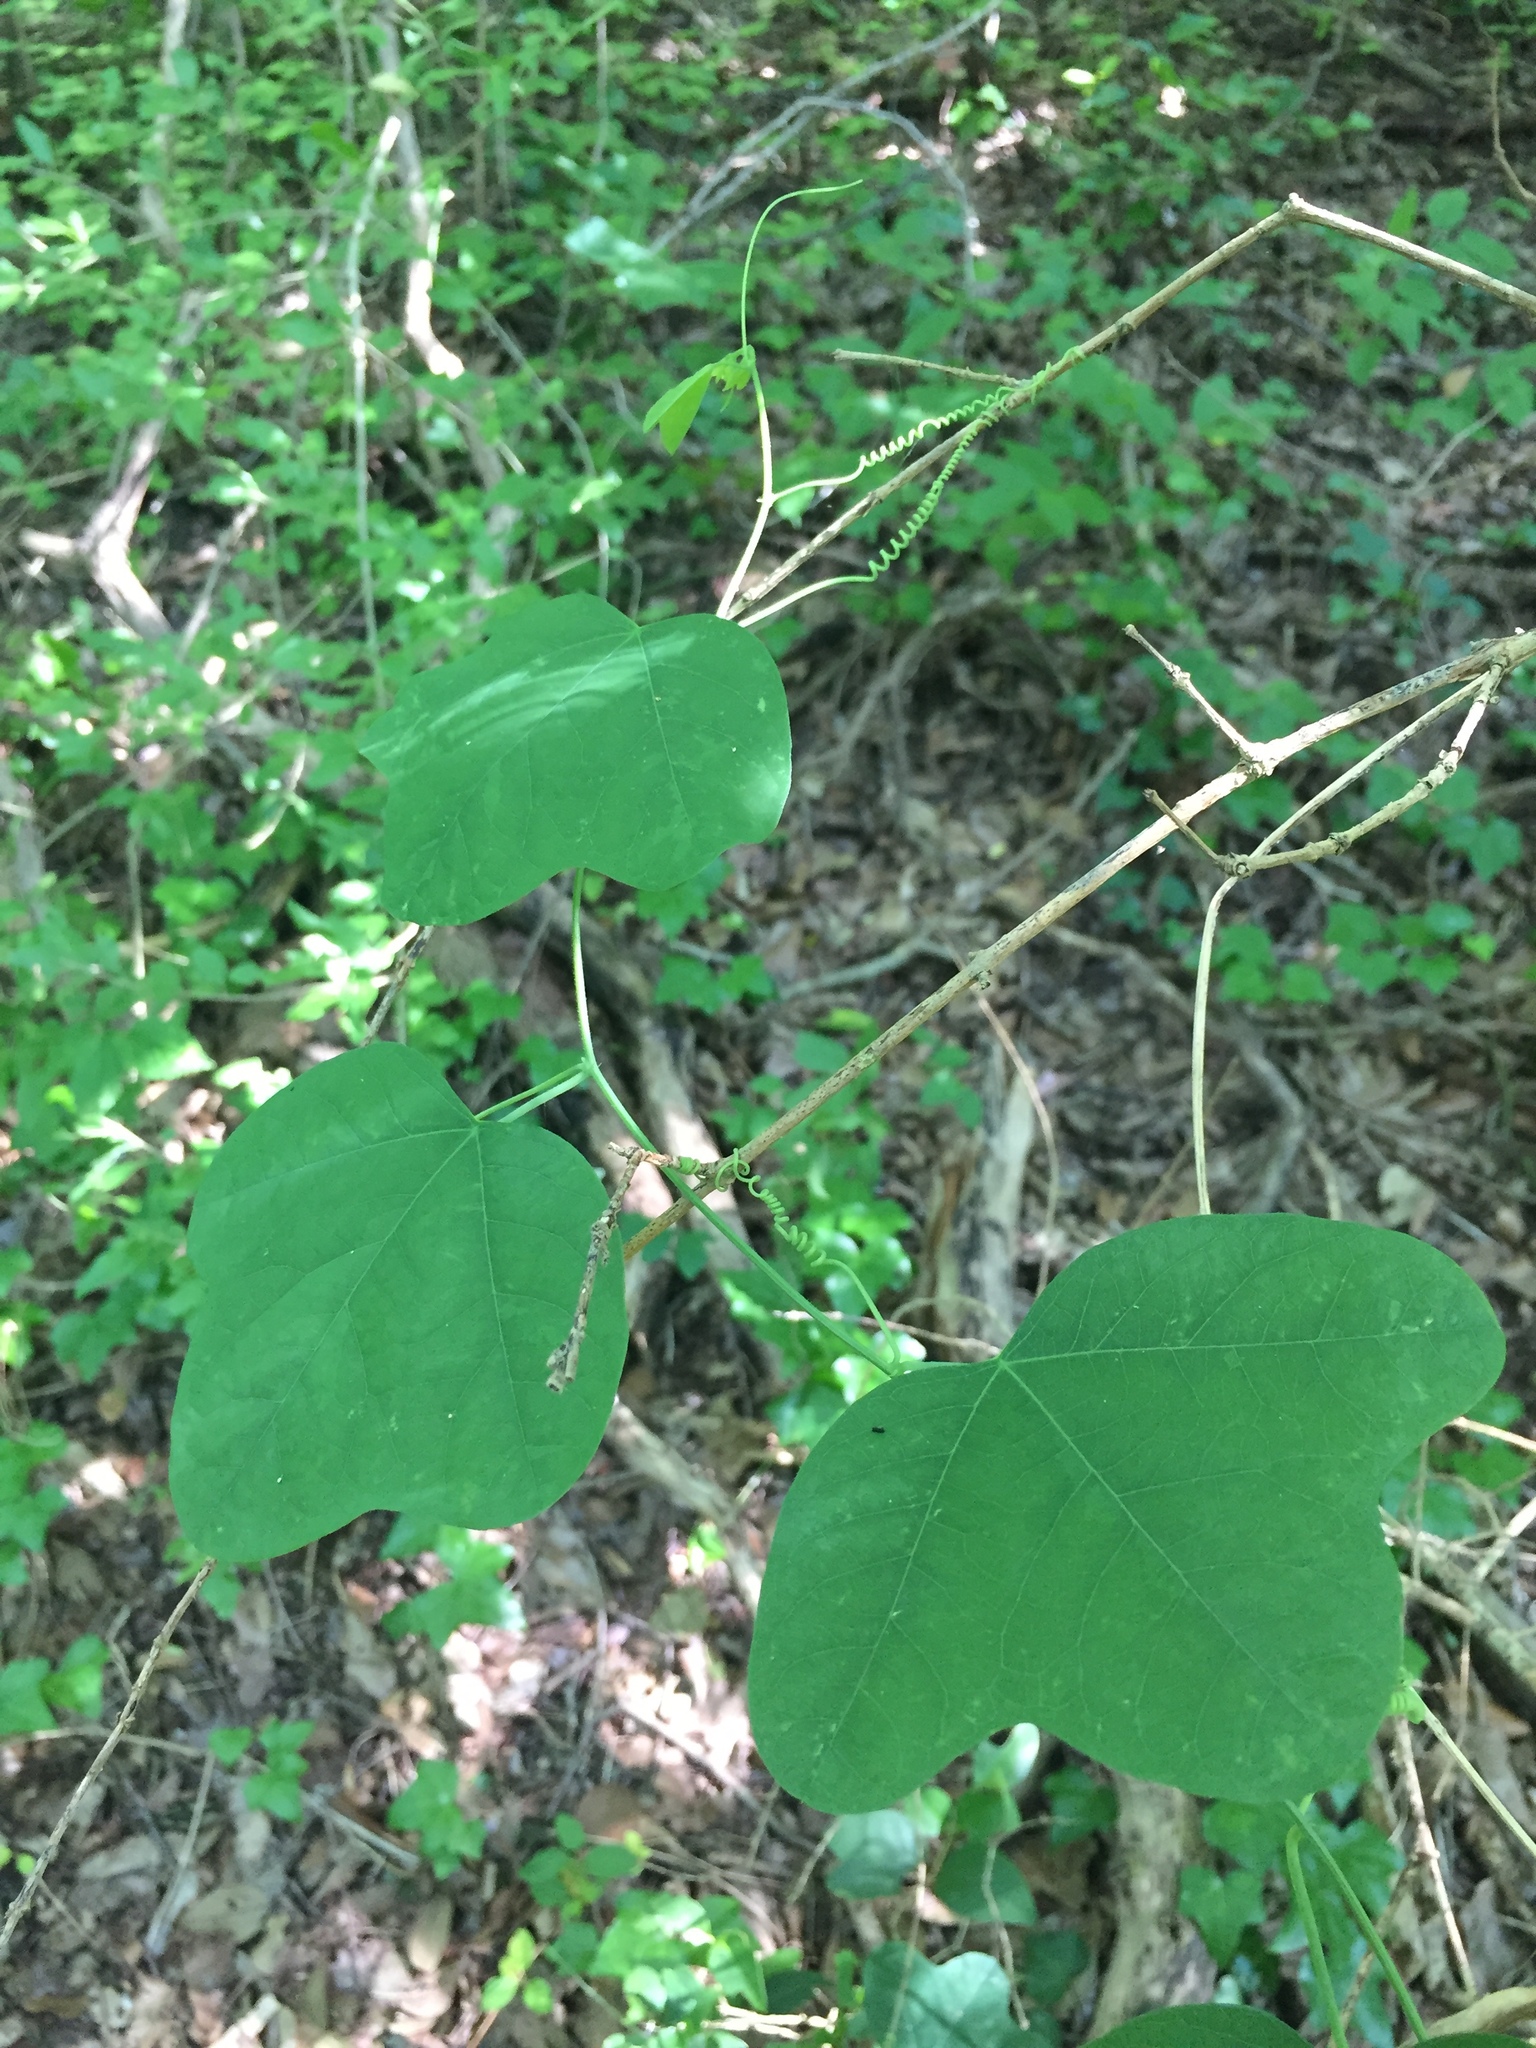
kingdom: Plantae
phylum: Tracheophyta
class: Magnoliopsida
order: Malpighiales
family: Passifloraceae
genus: Passiflora
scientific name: Passiflora lutea
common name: Yellow passionflower
